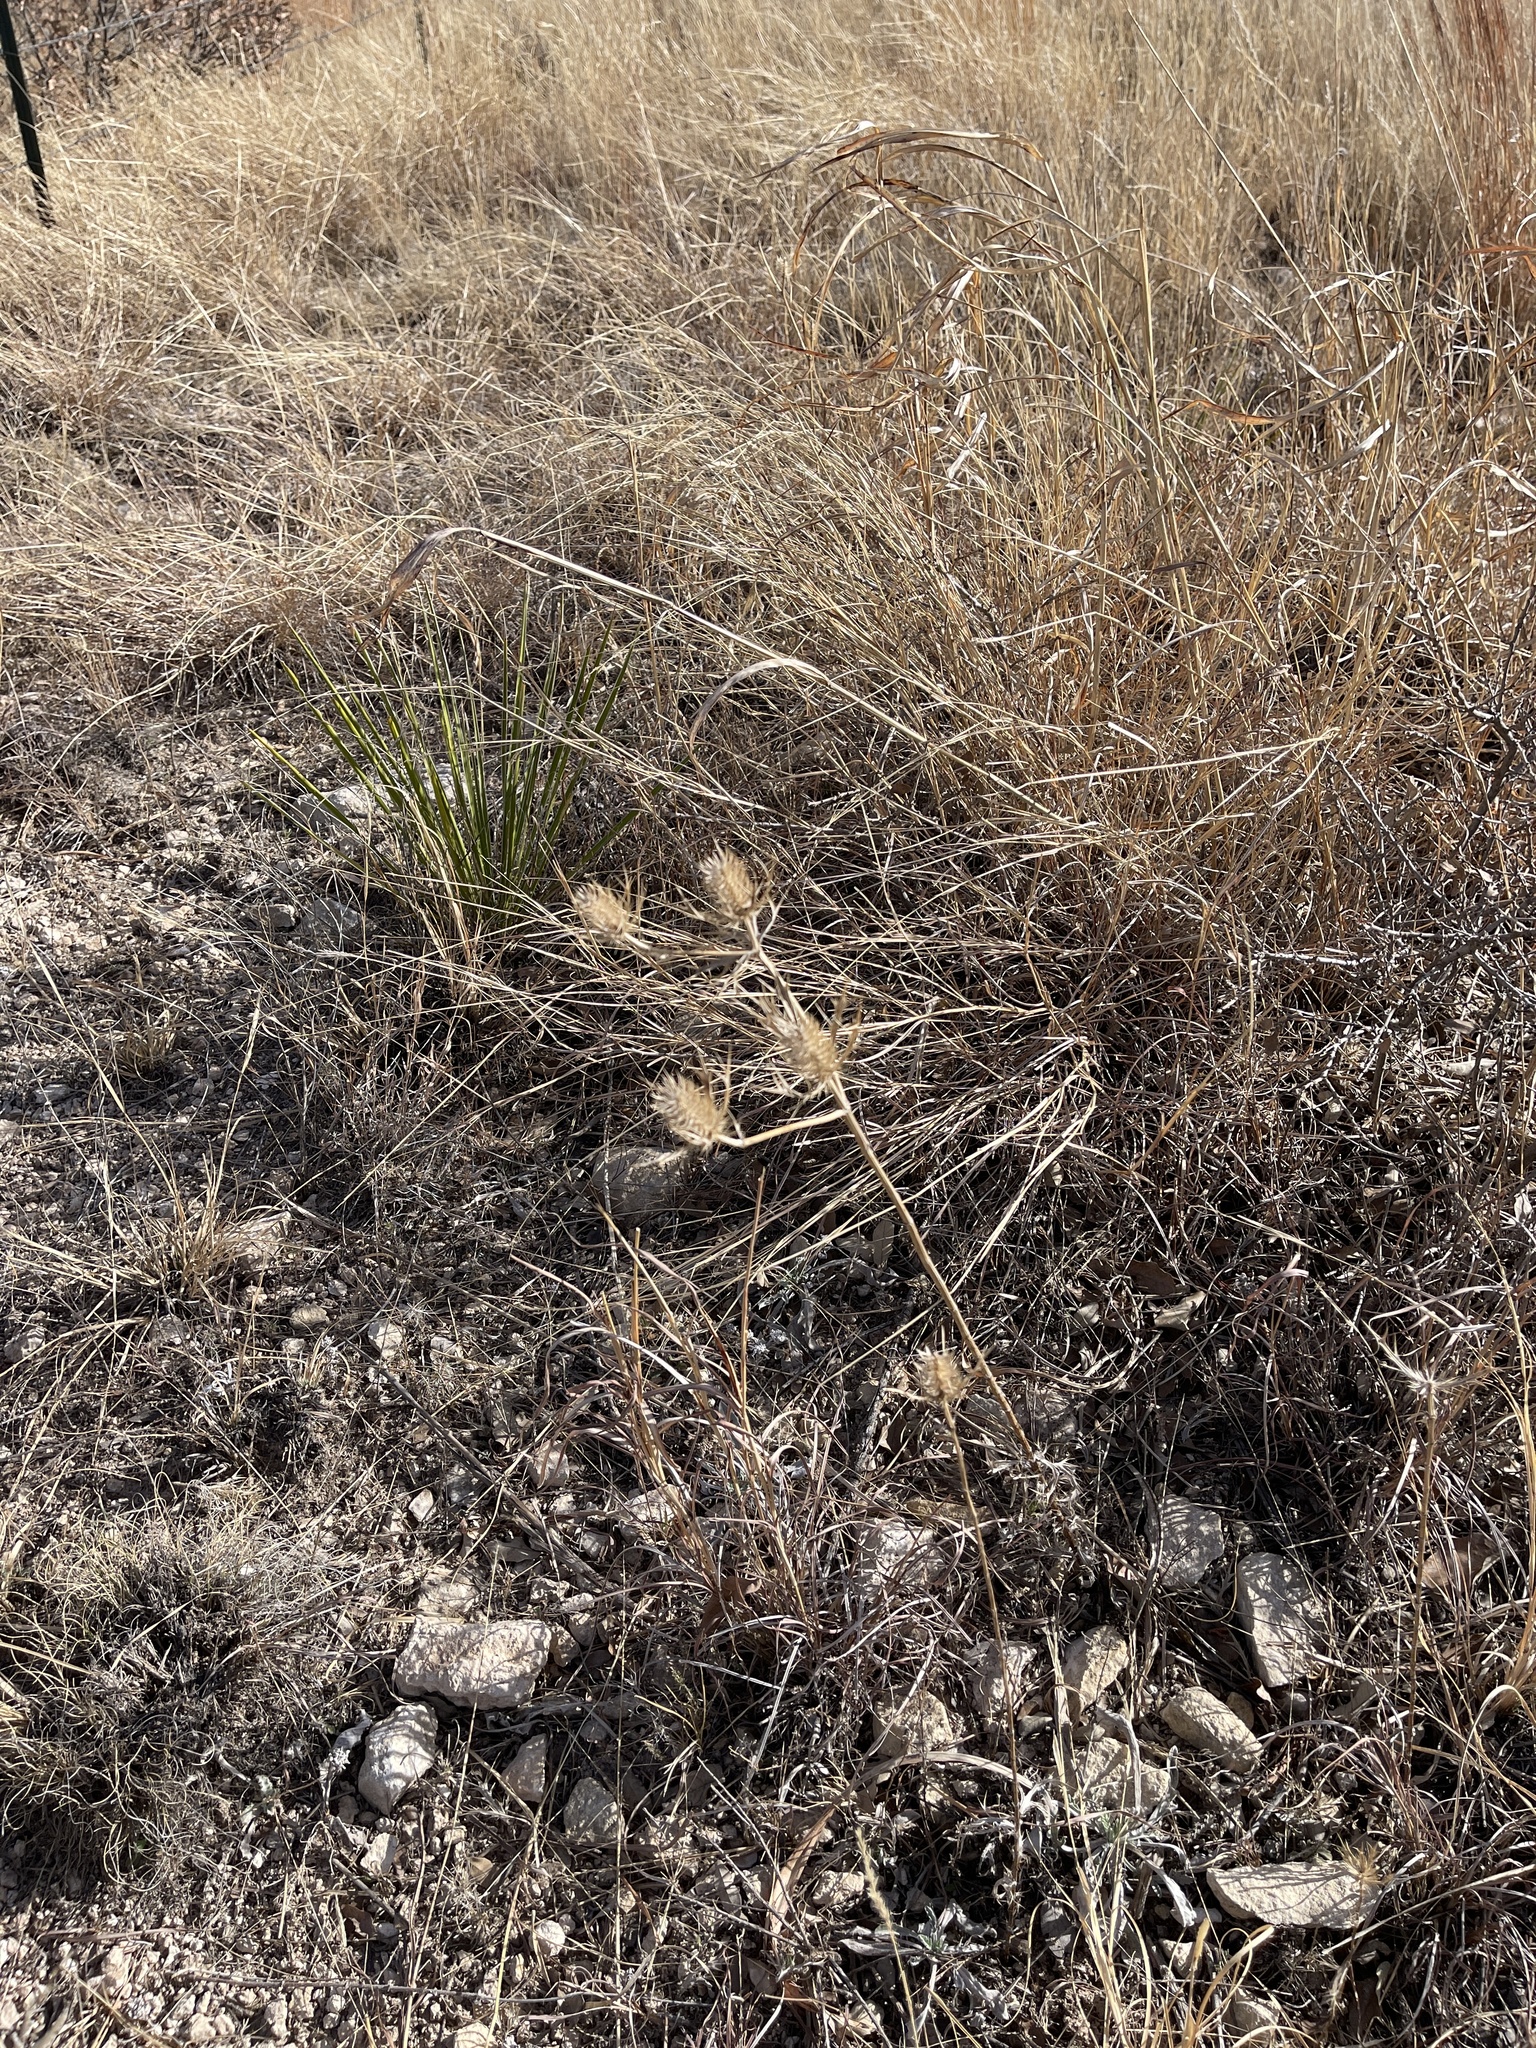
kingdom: Plantae
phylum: Tracheophyta
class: Magnoliopsida
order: Apiales
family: Apiaceae
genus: Eryngium
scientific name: Eryngium leavenworthii
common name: Leavenworth's eryngo
